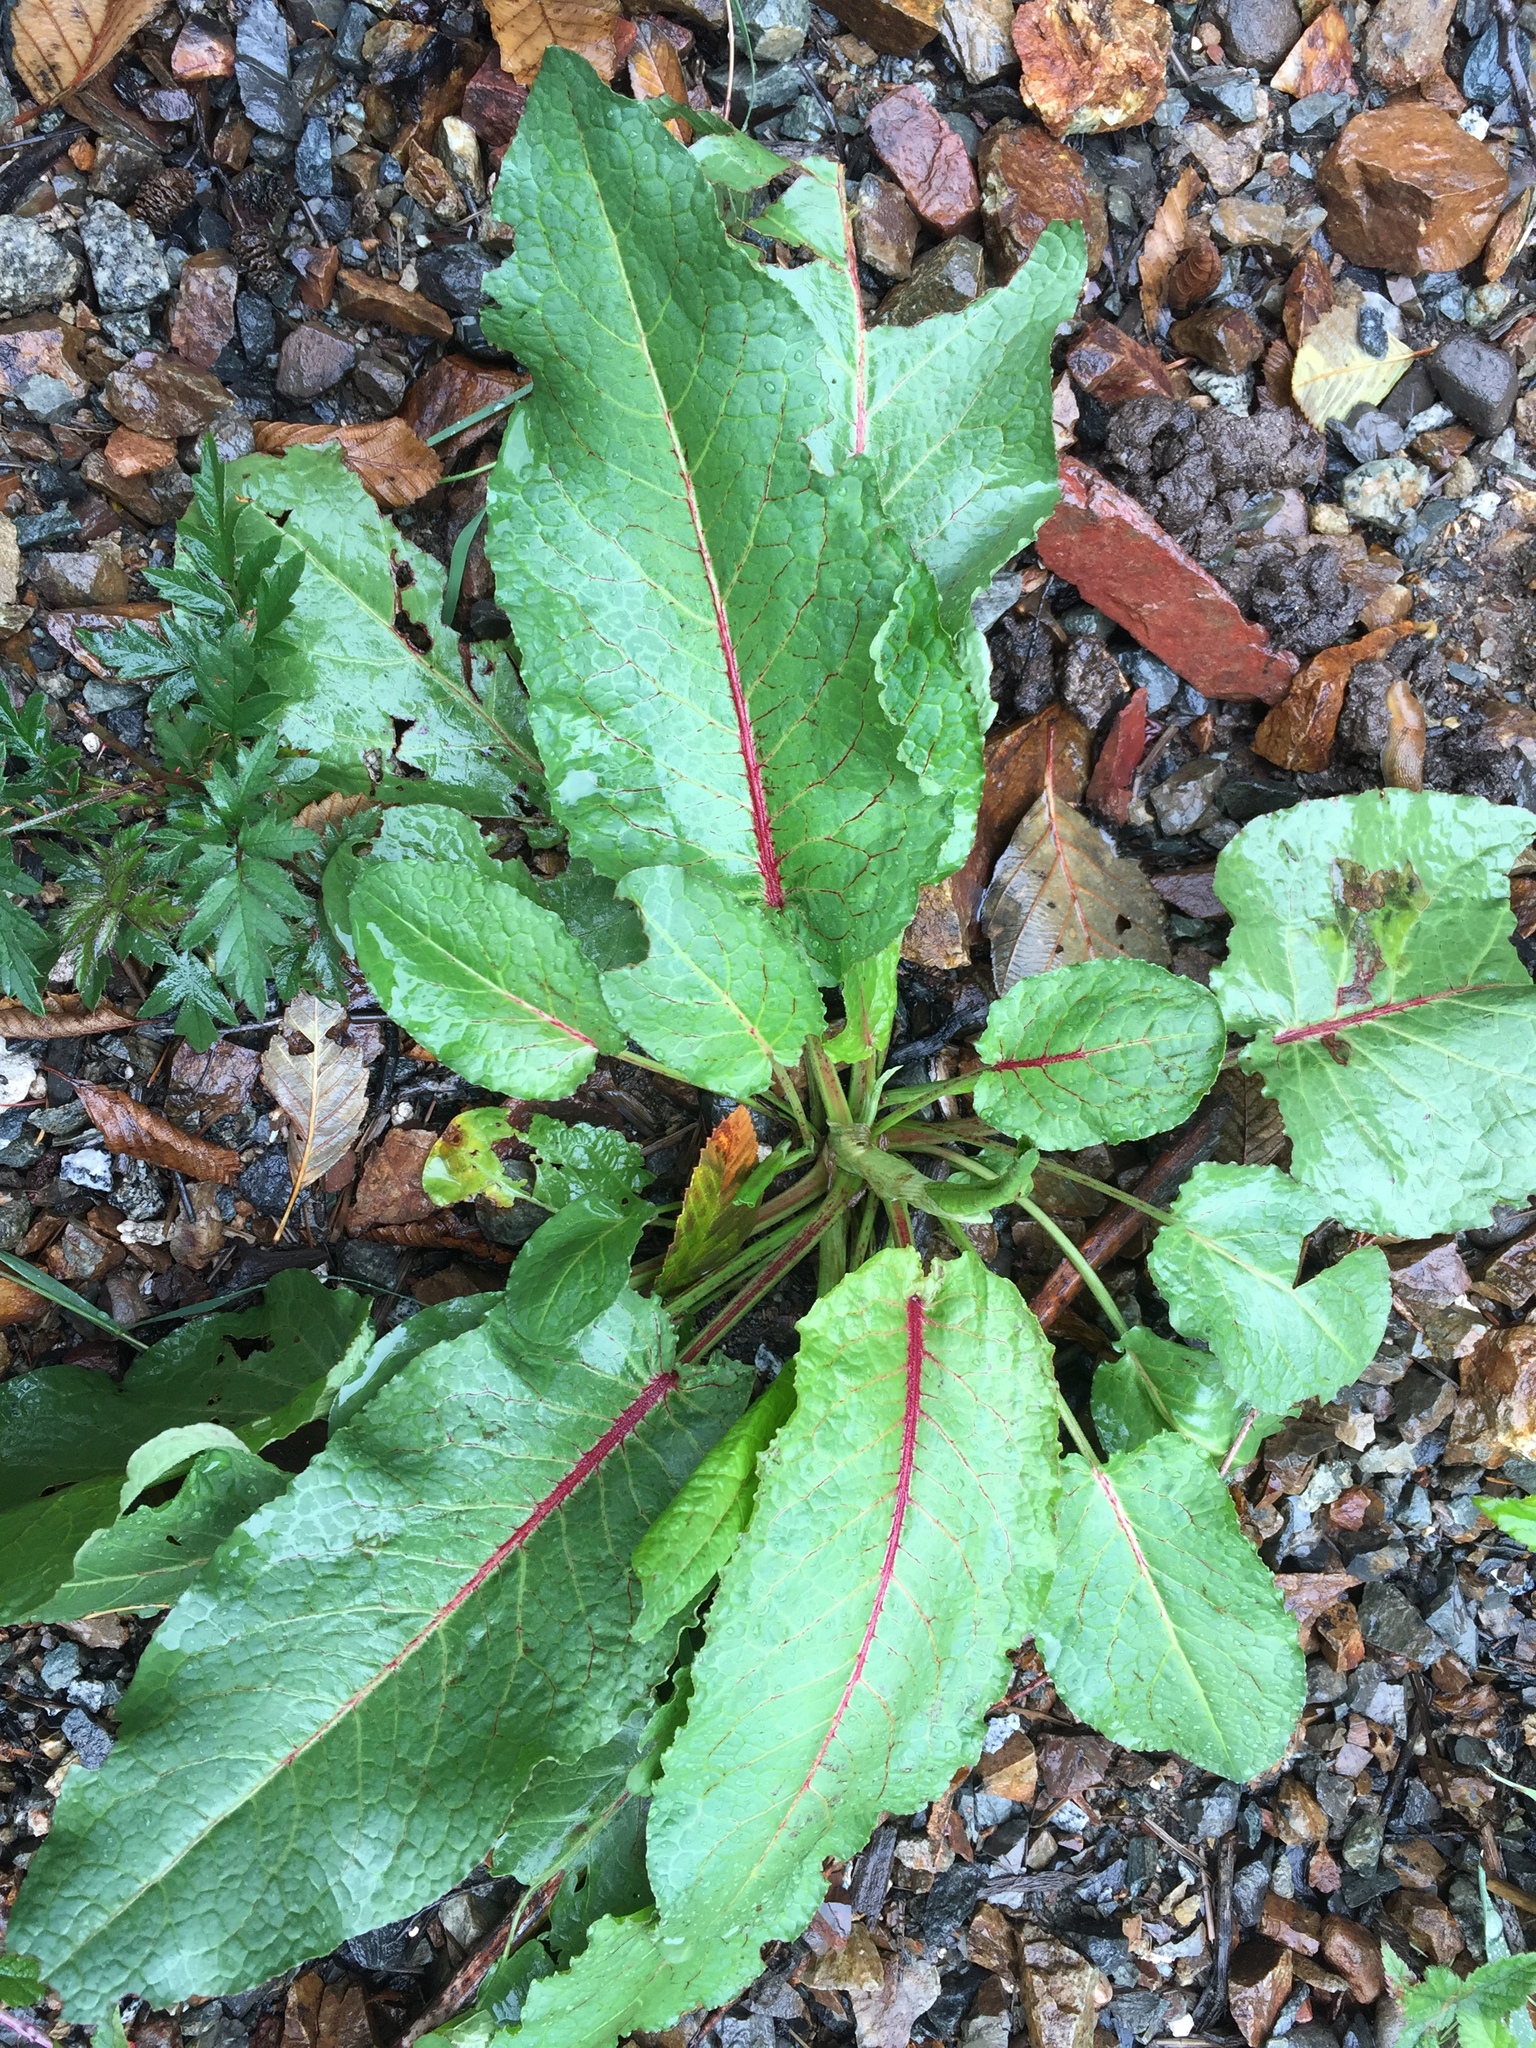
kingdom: Plantae
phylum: Tracheophyta
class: Magnoliopsida
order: Caryophyllales
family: Polygonaceae
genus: Rumex
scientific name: Rumex obtusifolius
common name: Bitter dock
